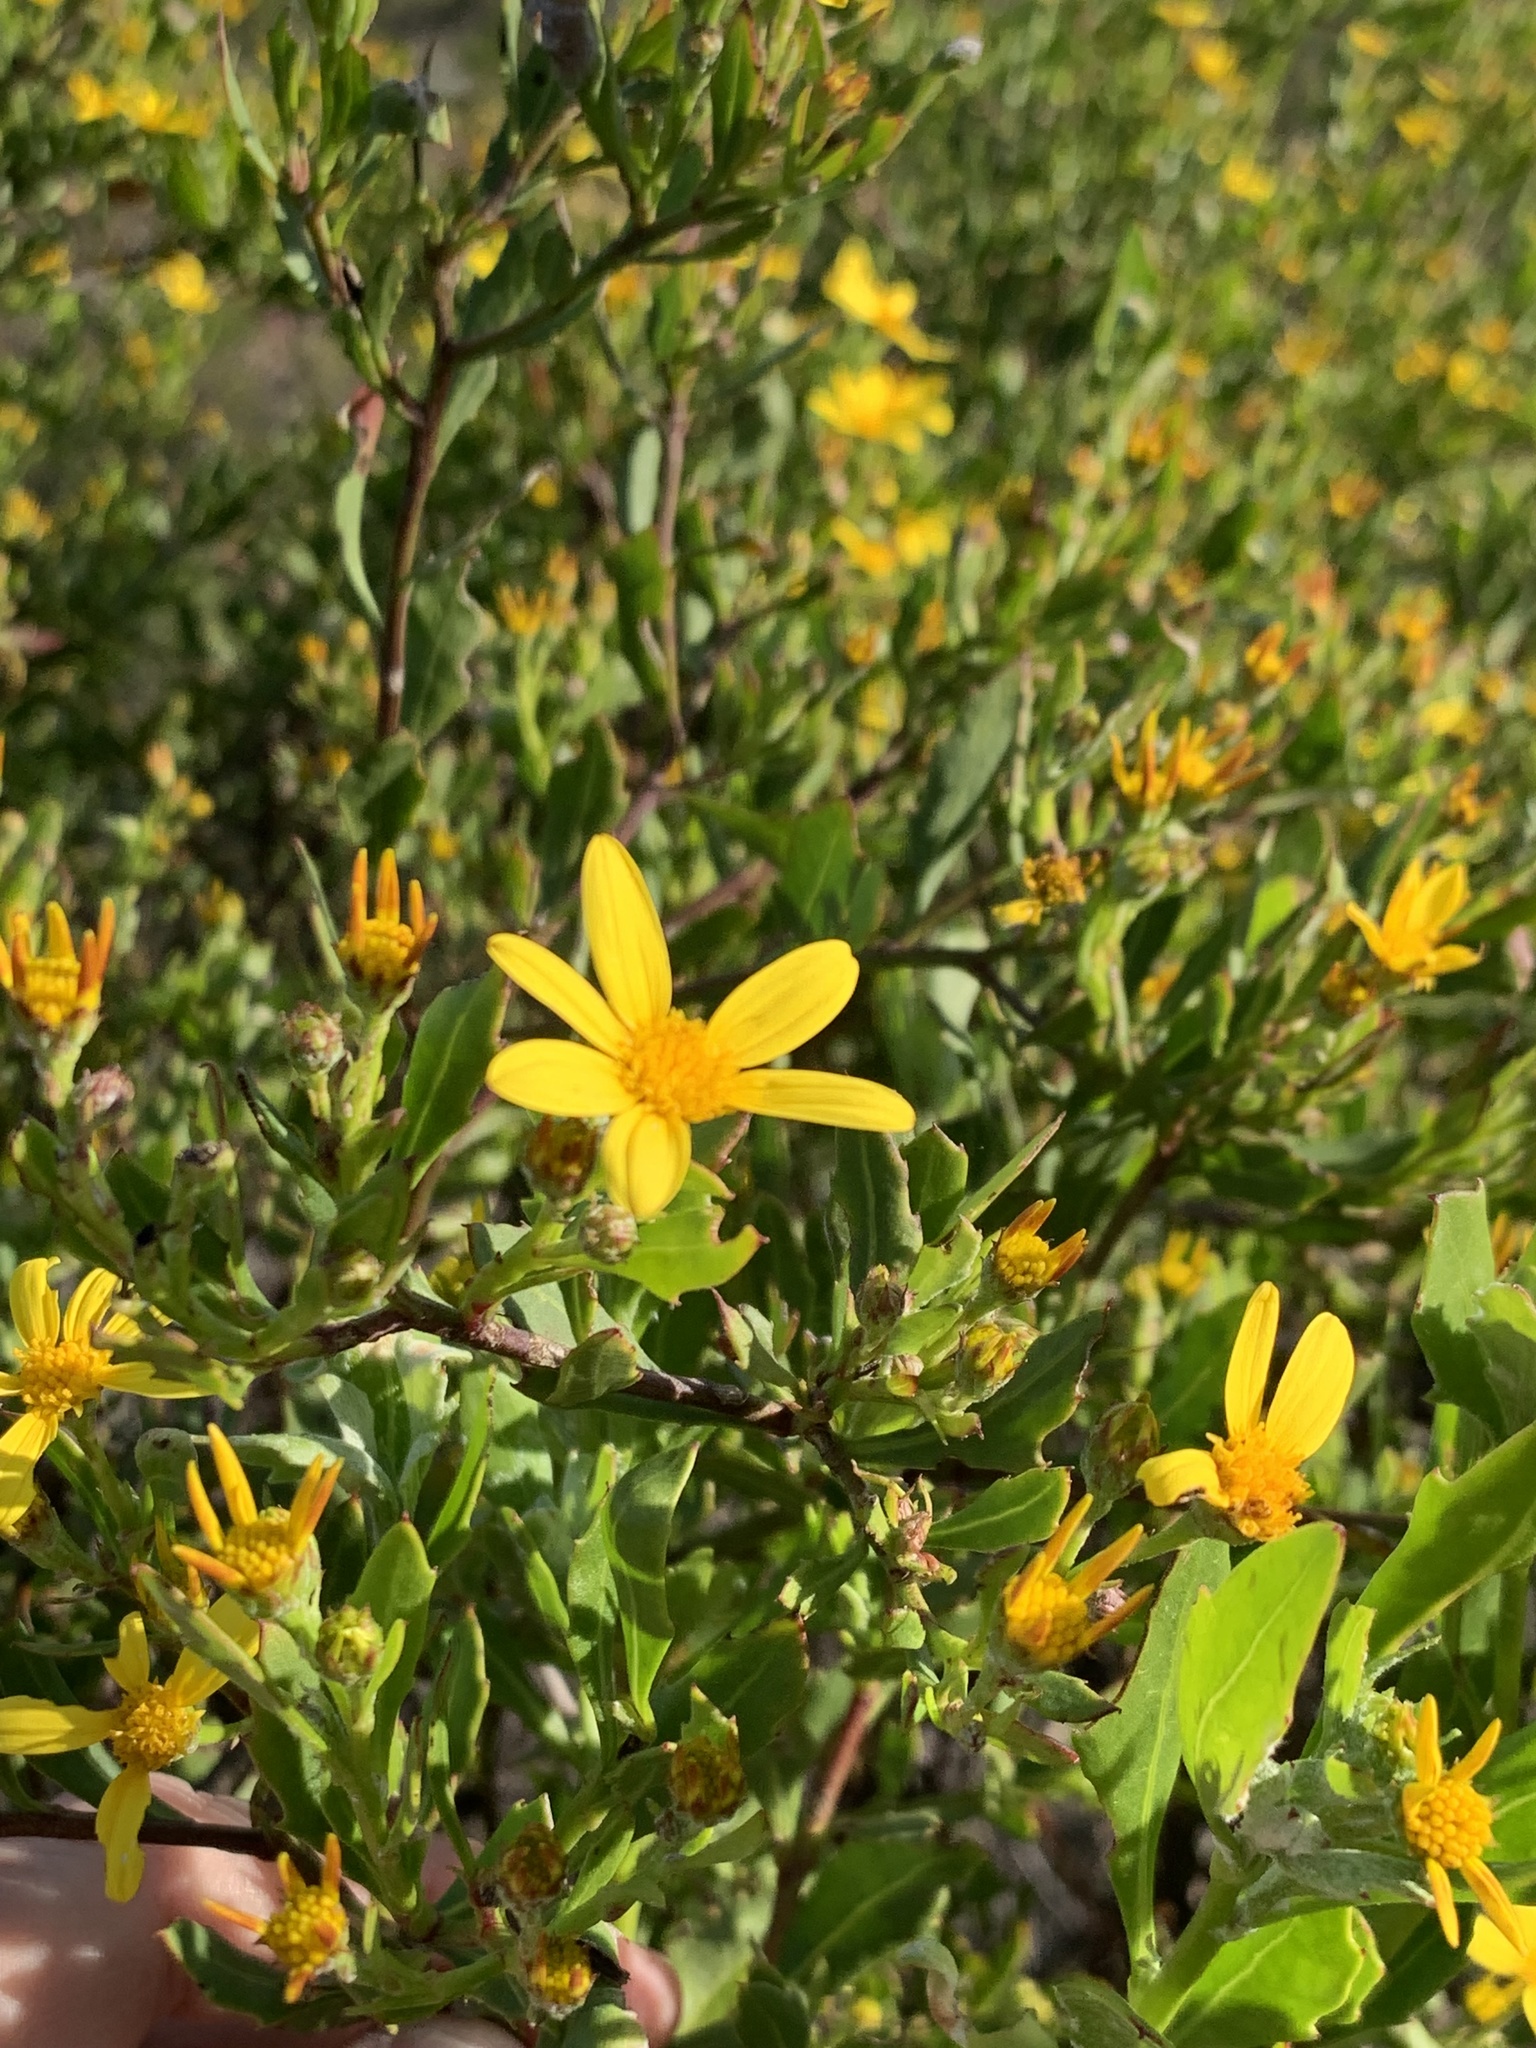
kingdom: Plantae
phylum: Tracheophyta
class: Magnoliopsida
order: Asterales
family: Asteraceae
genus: Osteospermum
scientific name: Osteospermum moniliferum
